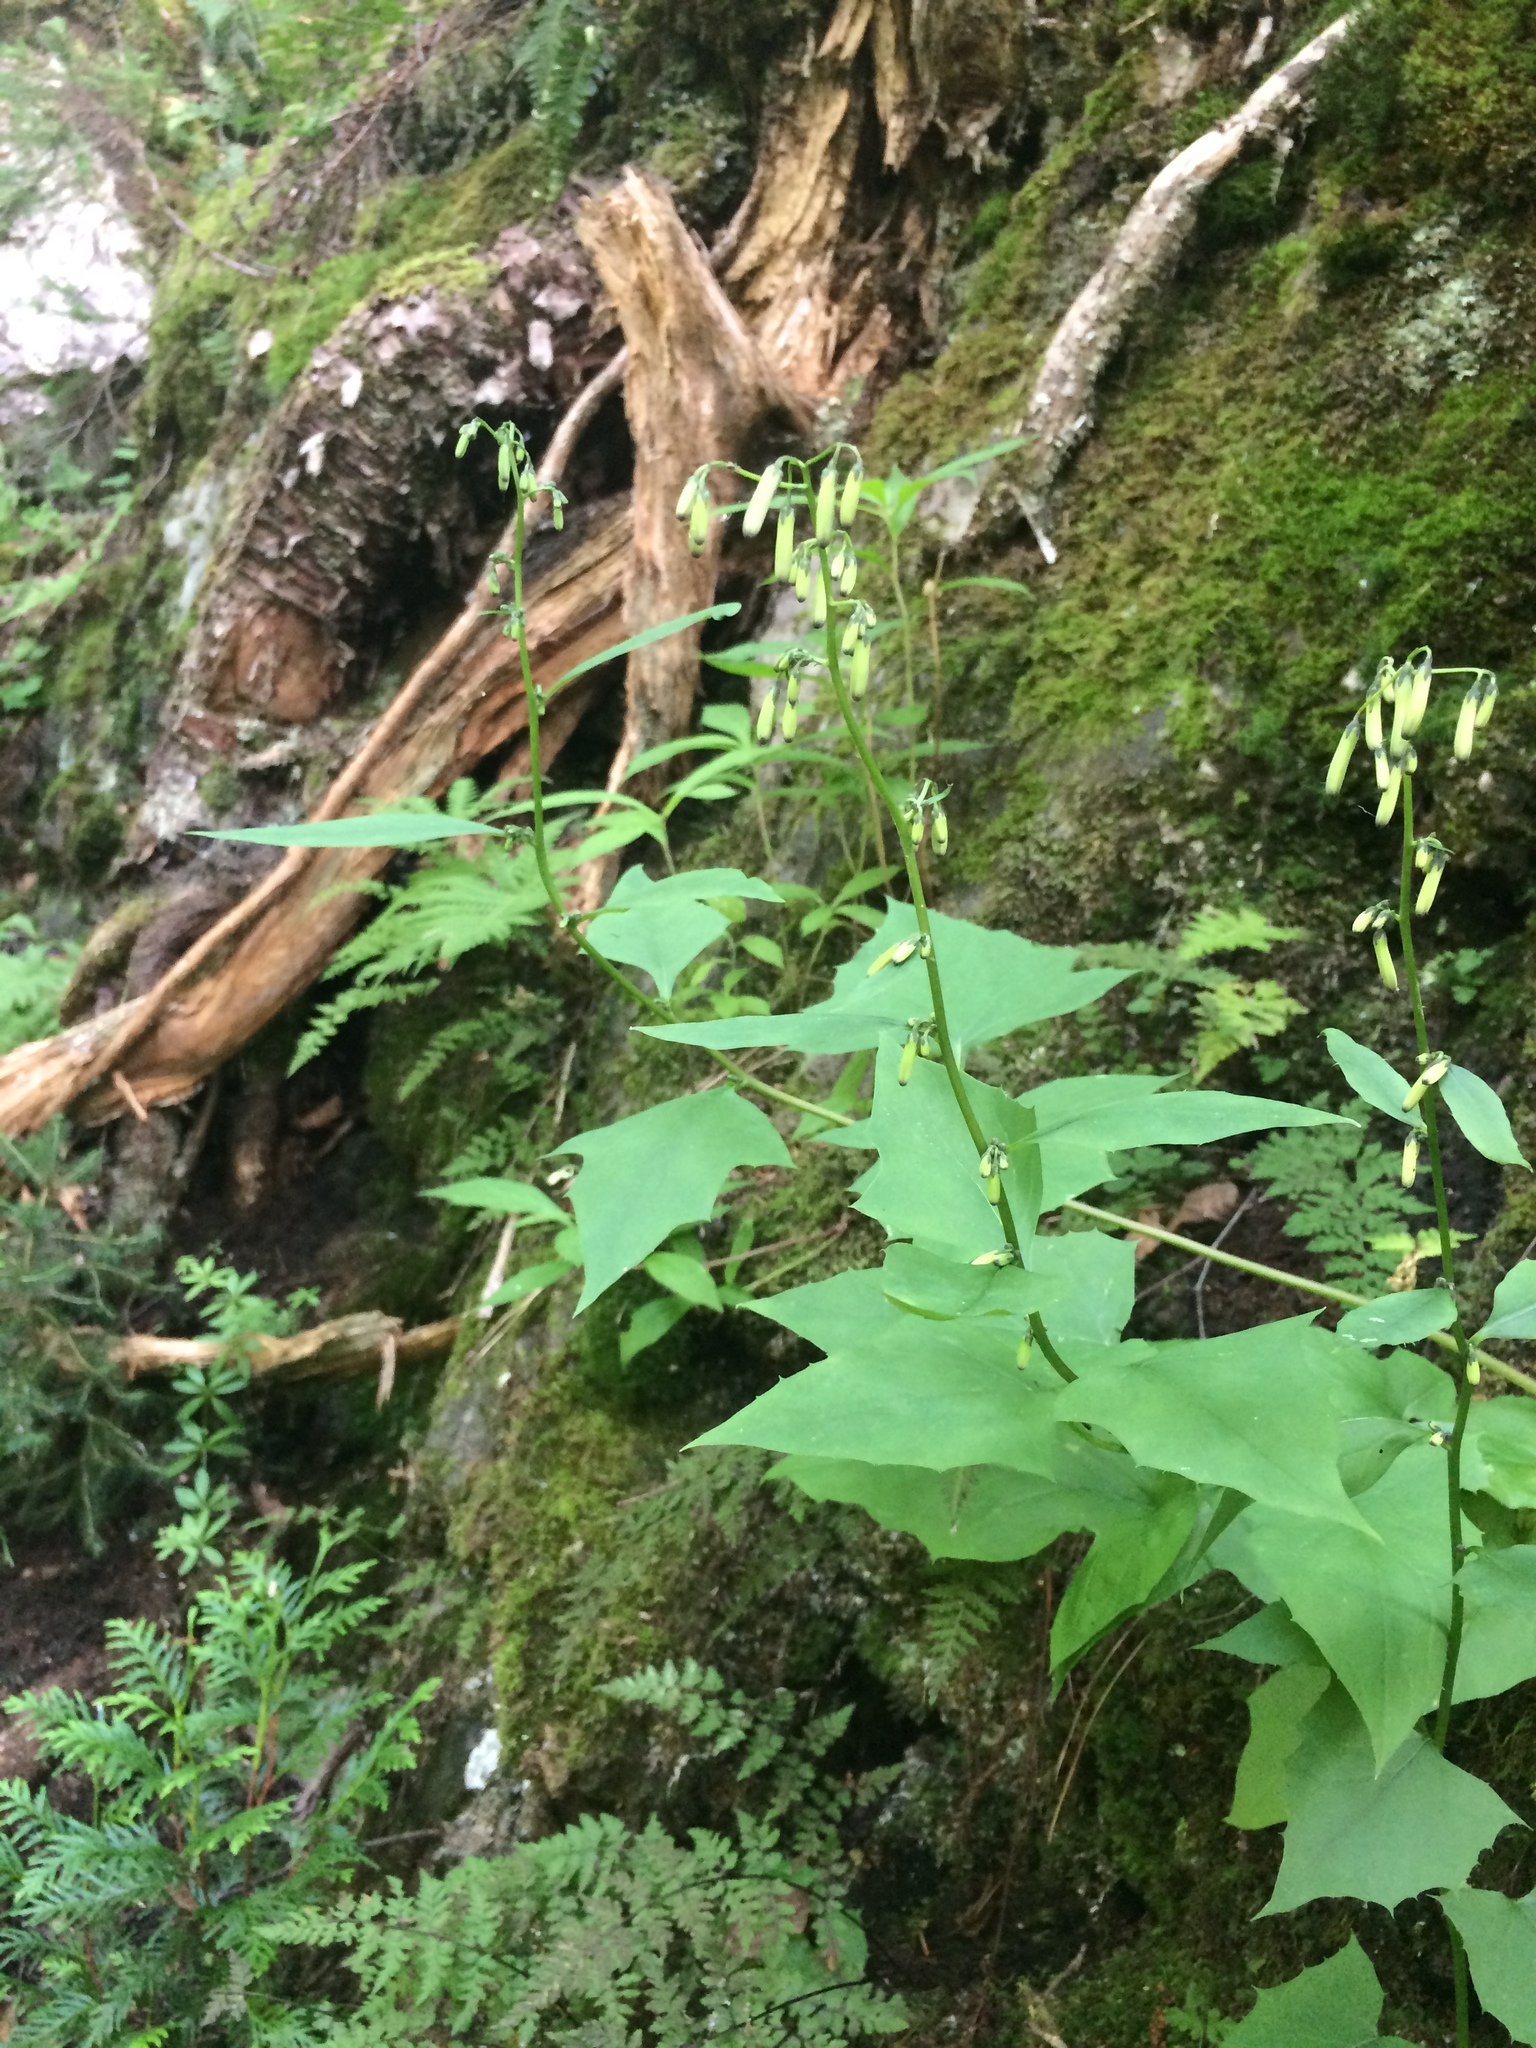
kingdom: Plantae
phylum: Tracheophyta
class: Magnoliopsida
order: Asterales
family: Asteraceae
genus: Nabalus
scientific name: Nabalus altissima
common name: Tall rattlesnakeroot
